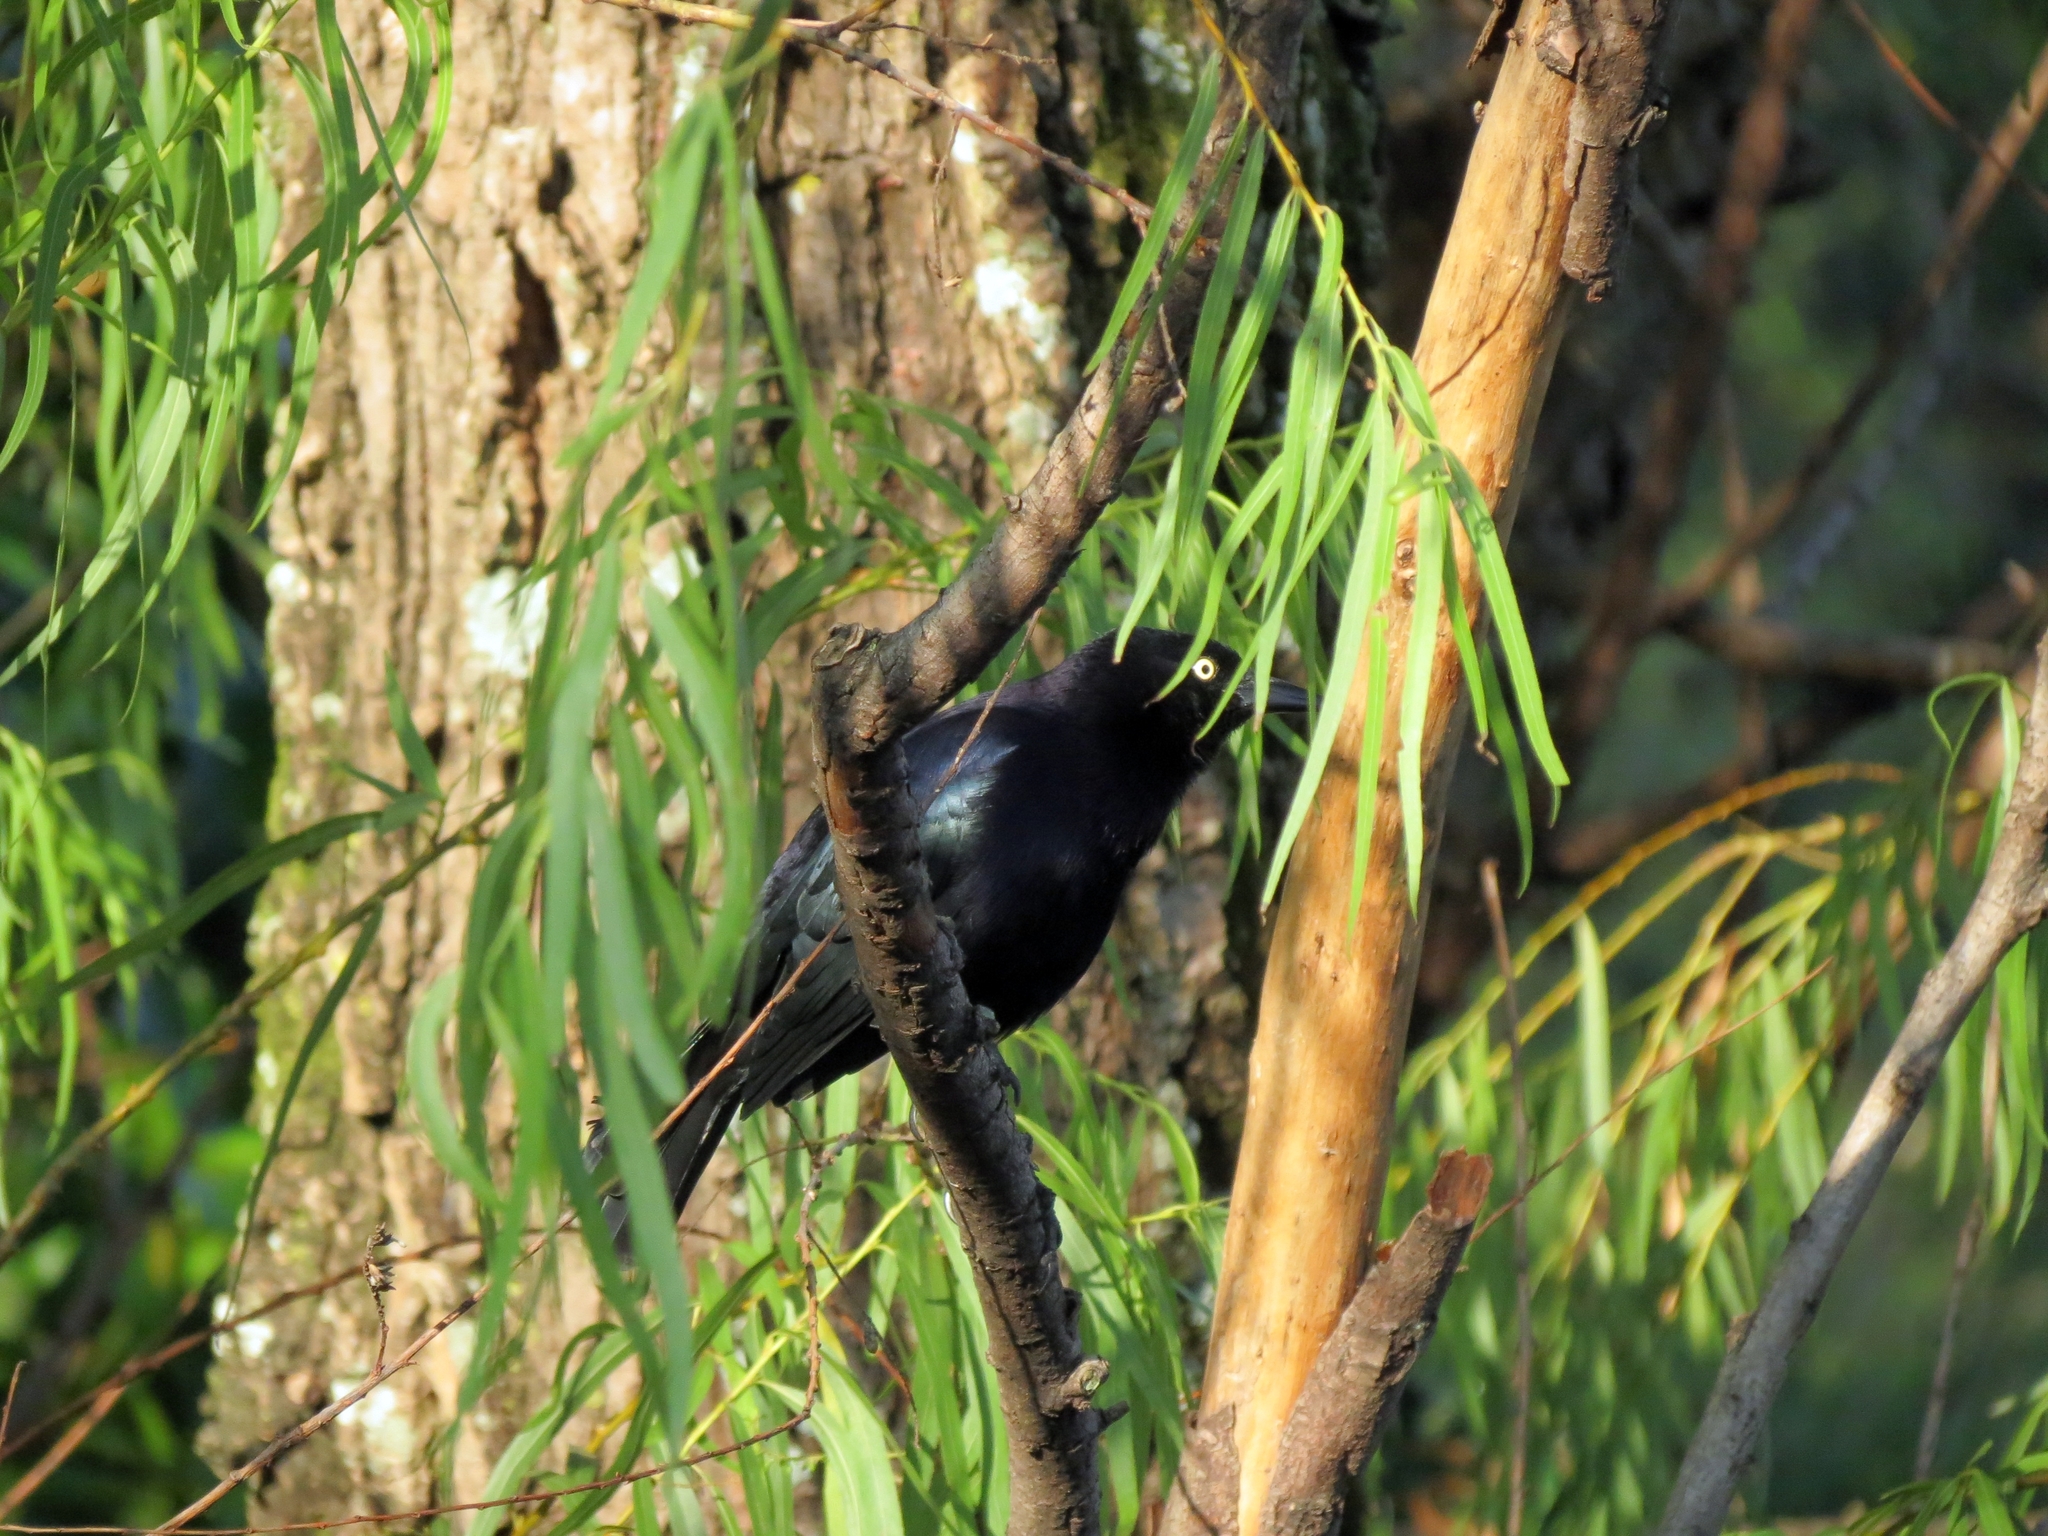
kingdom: Animalia
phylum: Chordata
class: Aves
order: Passeriformes
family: Icteridae
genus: Quiscalus
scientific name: Quiscalus lugubris
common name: Carib grackle
